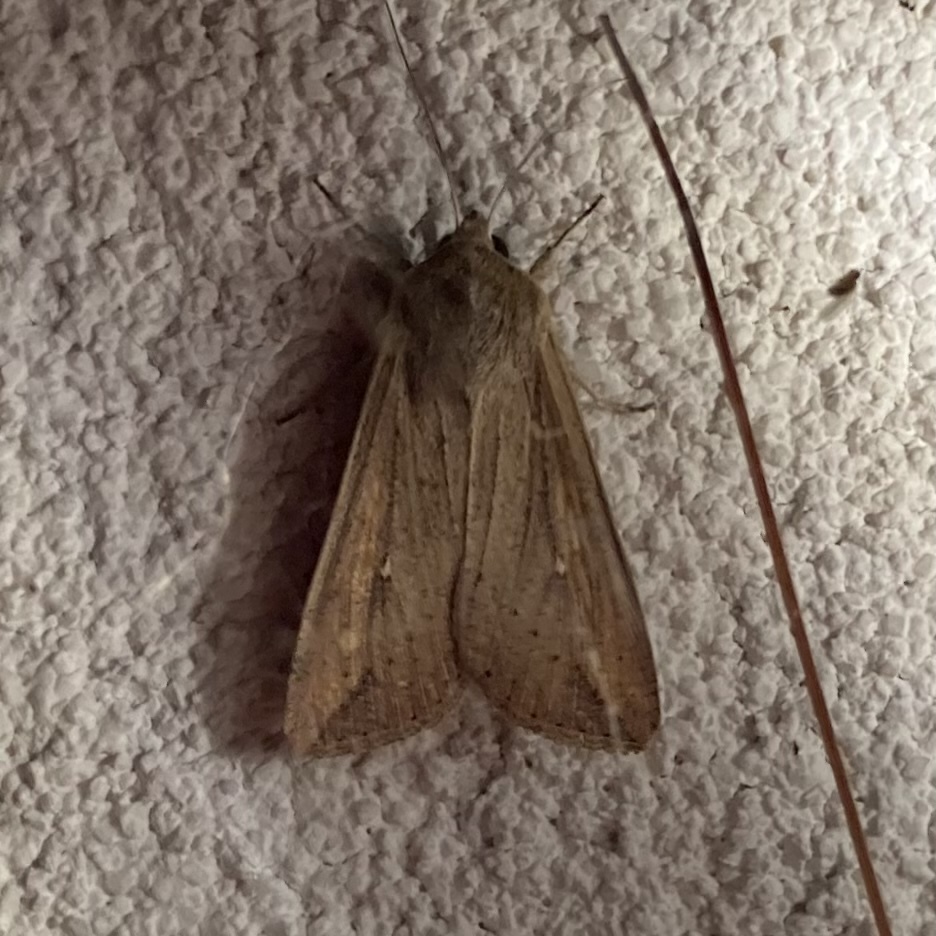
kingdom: Animalia
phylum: Arthropoda
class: Insecta
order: Lepidoptera
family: Noctuidae
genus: Mythimna
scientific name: Mythimna unipuncta
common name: White-speck
